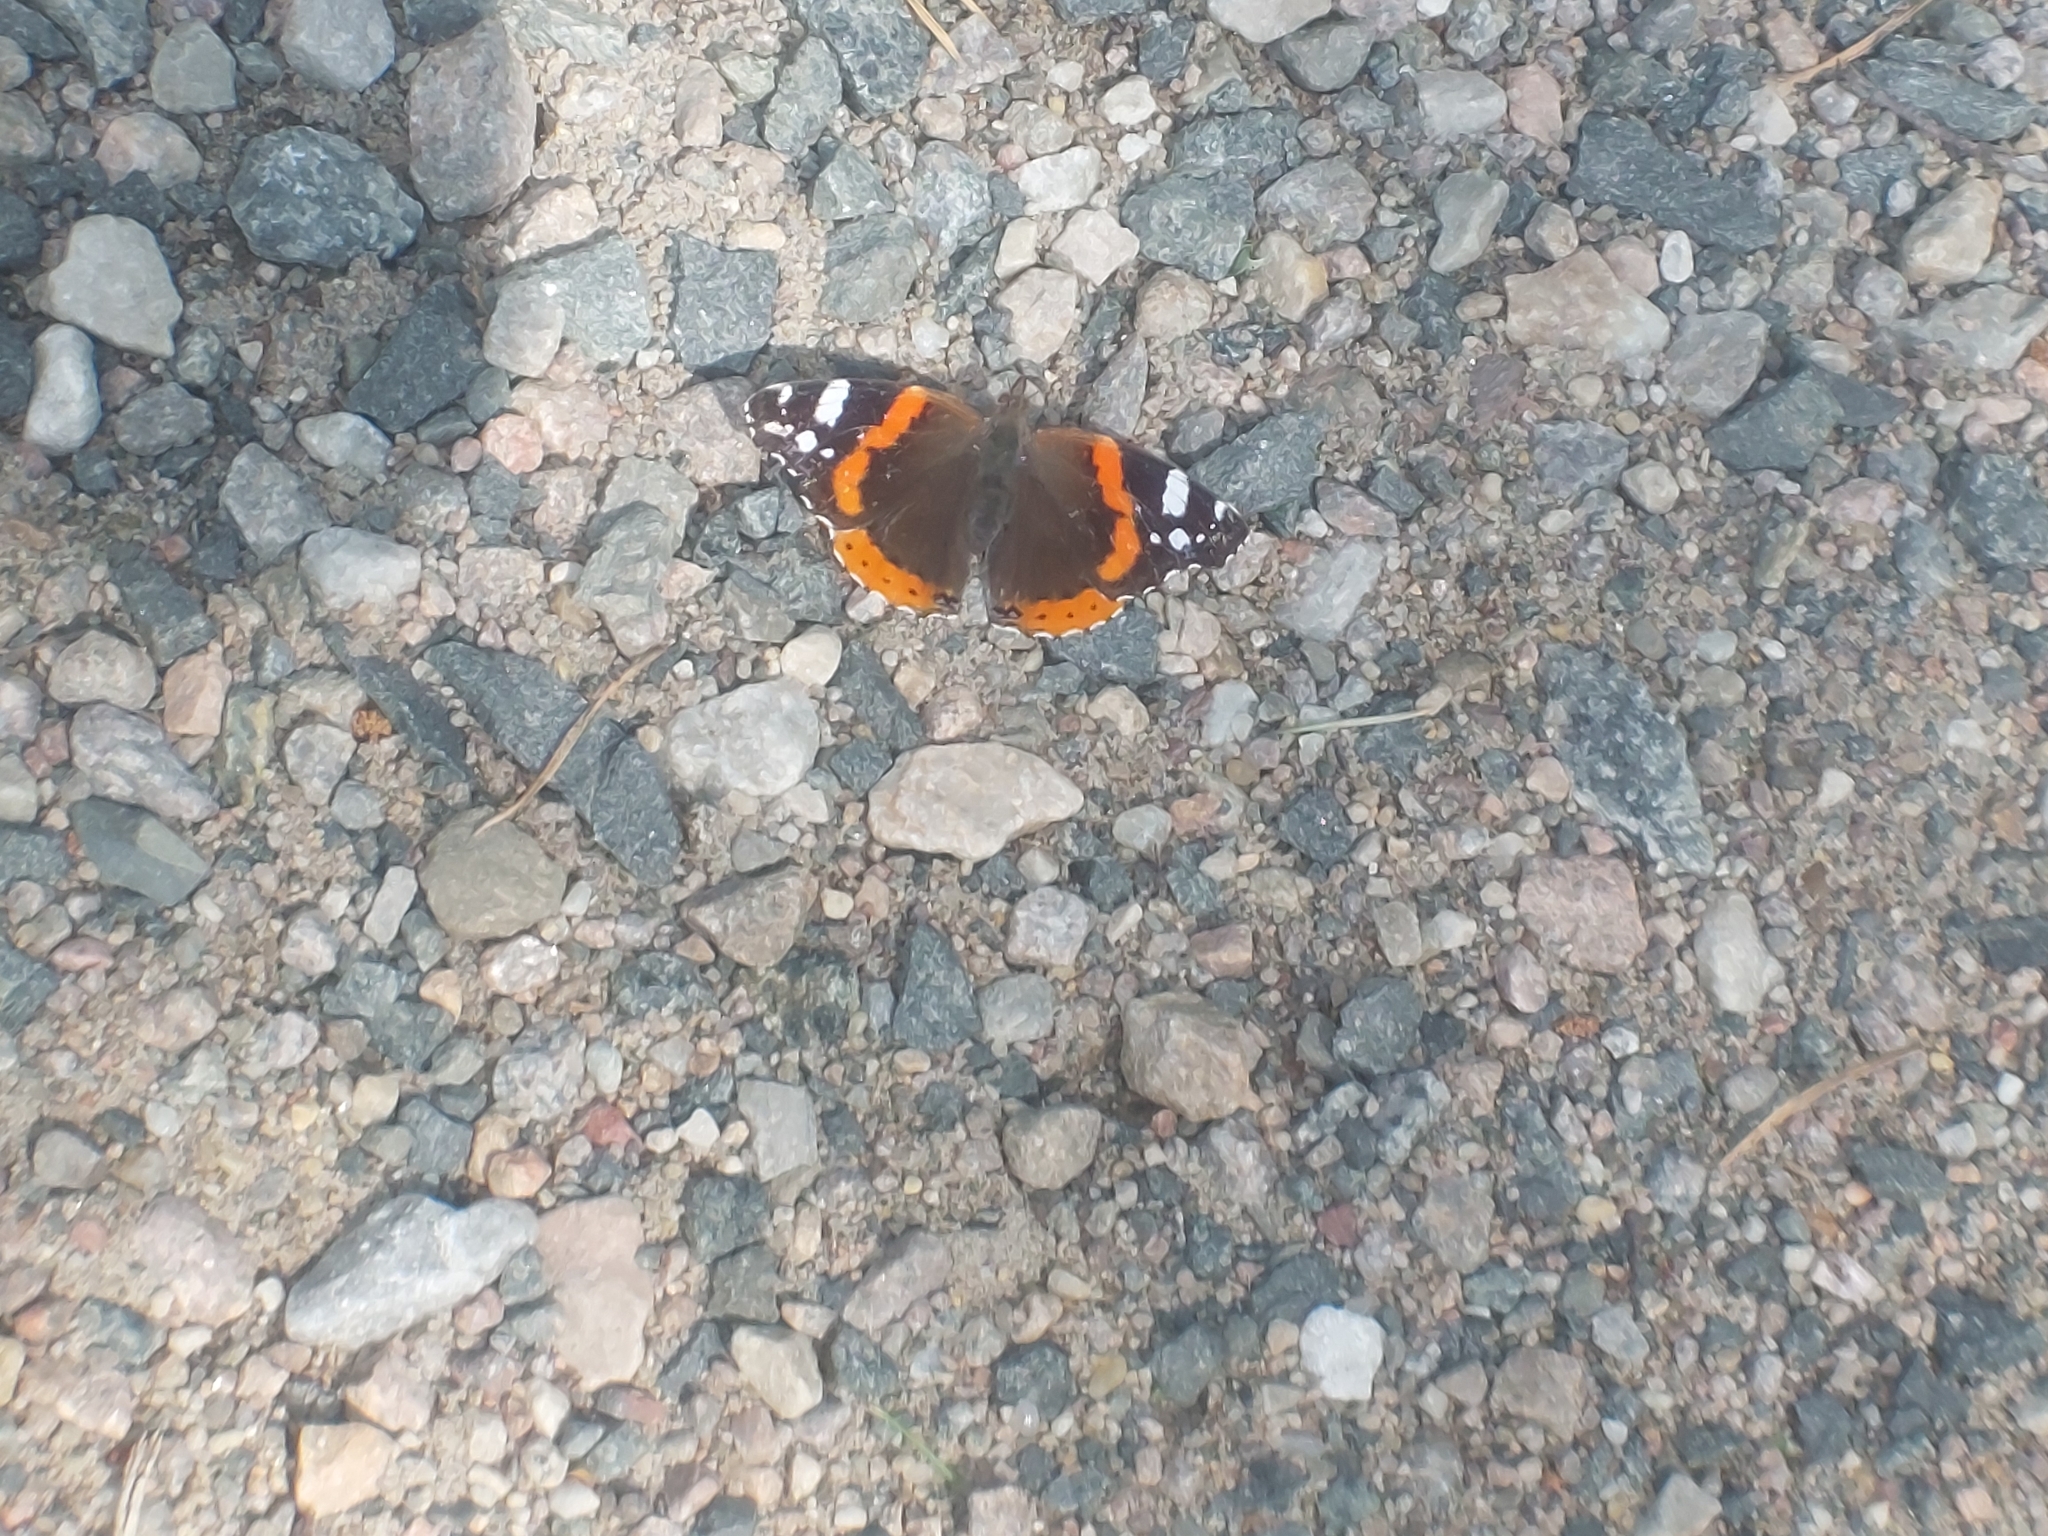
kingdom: Animalia
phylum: Arthropoda
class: Insecta
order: Lepidoptera
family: Nymphalidae
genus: Vanessa
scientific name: Vanessa atalanta
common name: Red admiral
